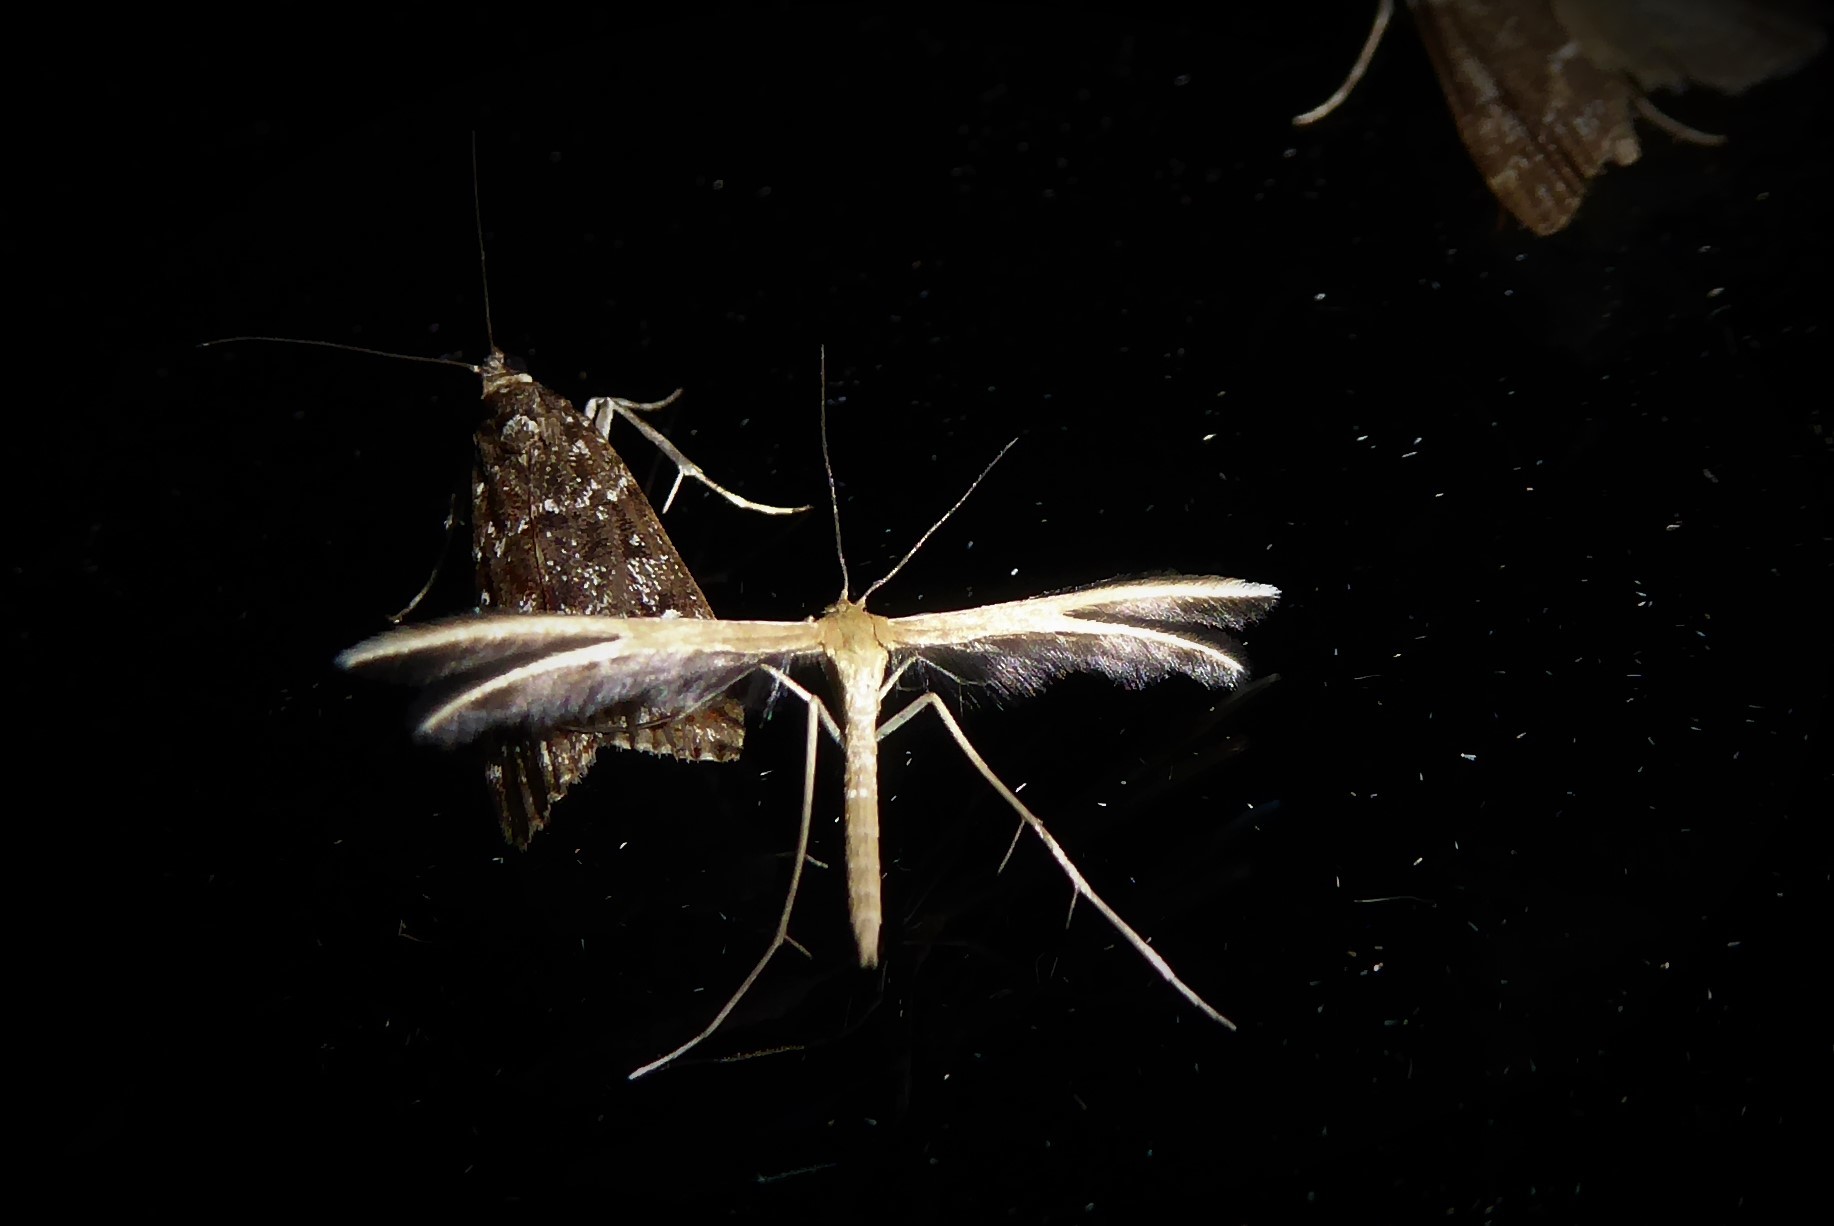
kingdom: Animalia
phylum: Arthropoda
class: Insecta
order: Lepidoptera
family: Pterophoridae
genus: Pterophorus
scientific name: Pterophorus innotatalis
